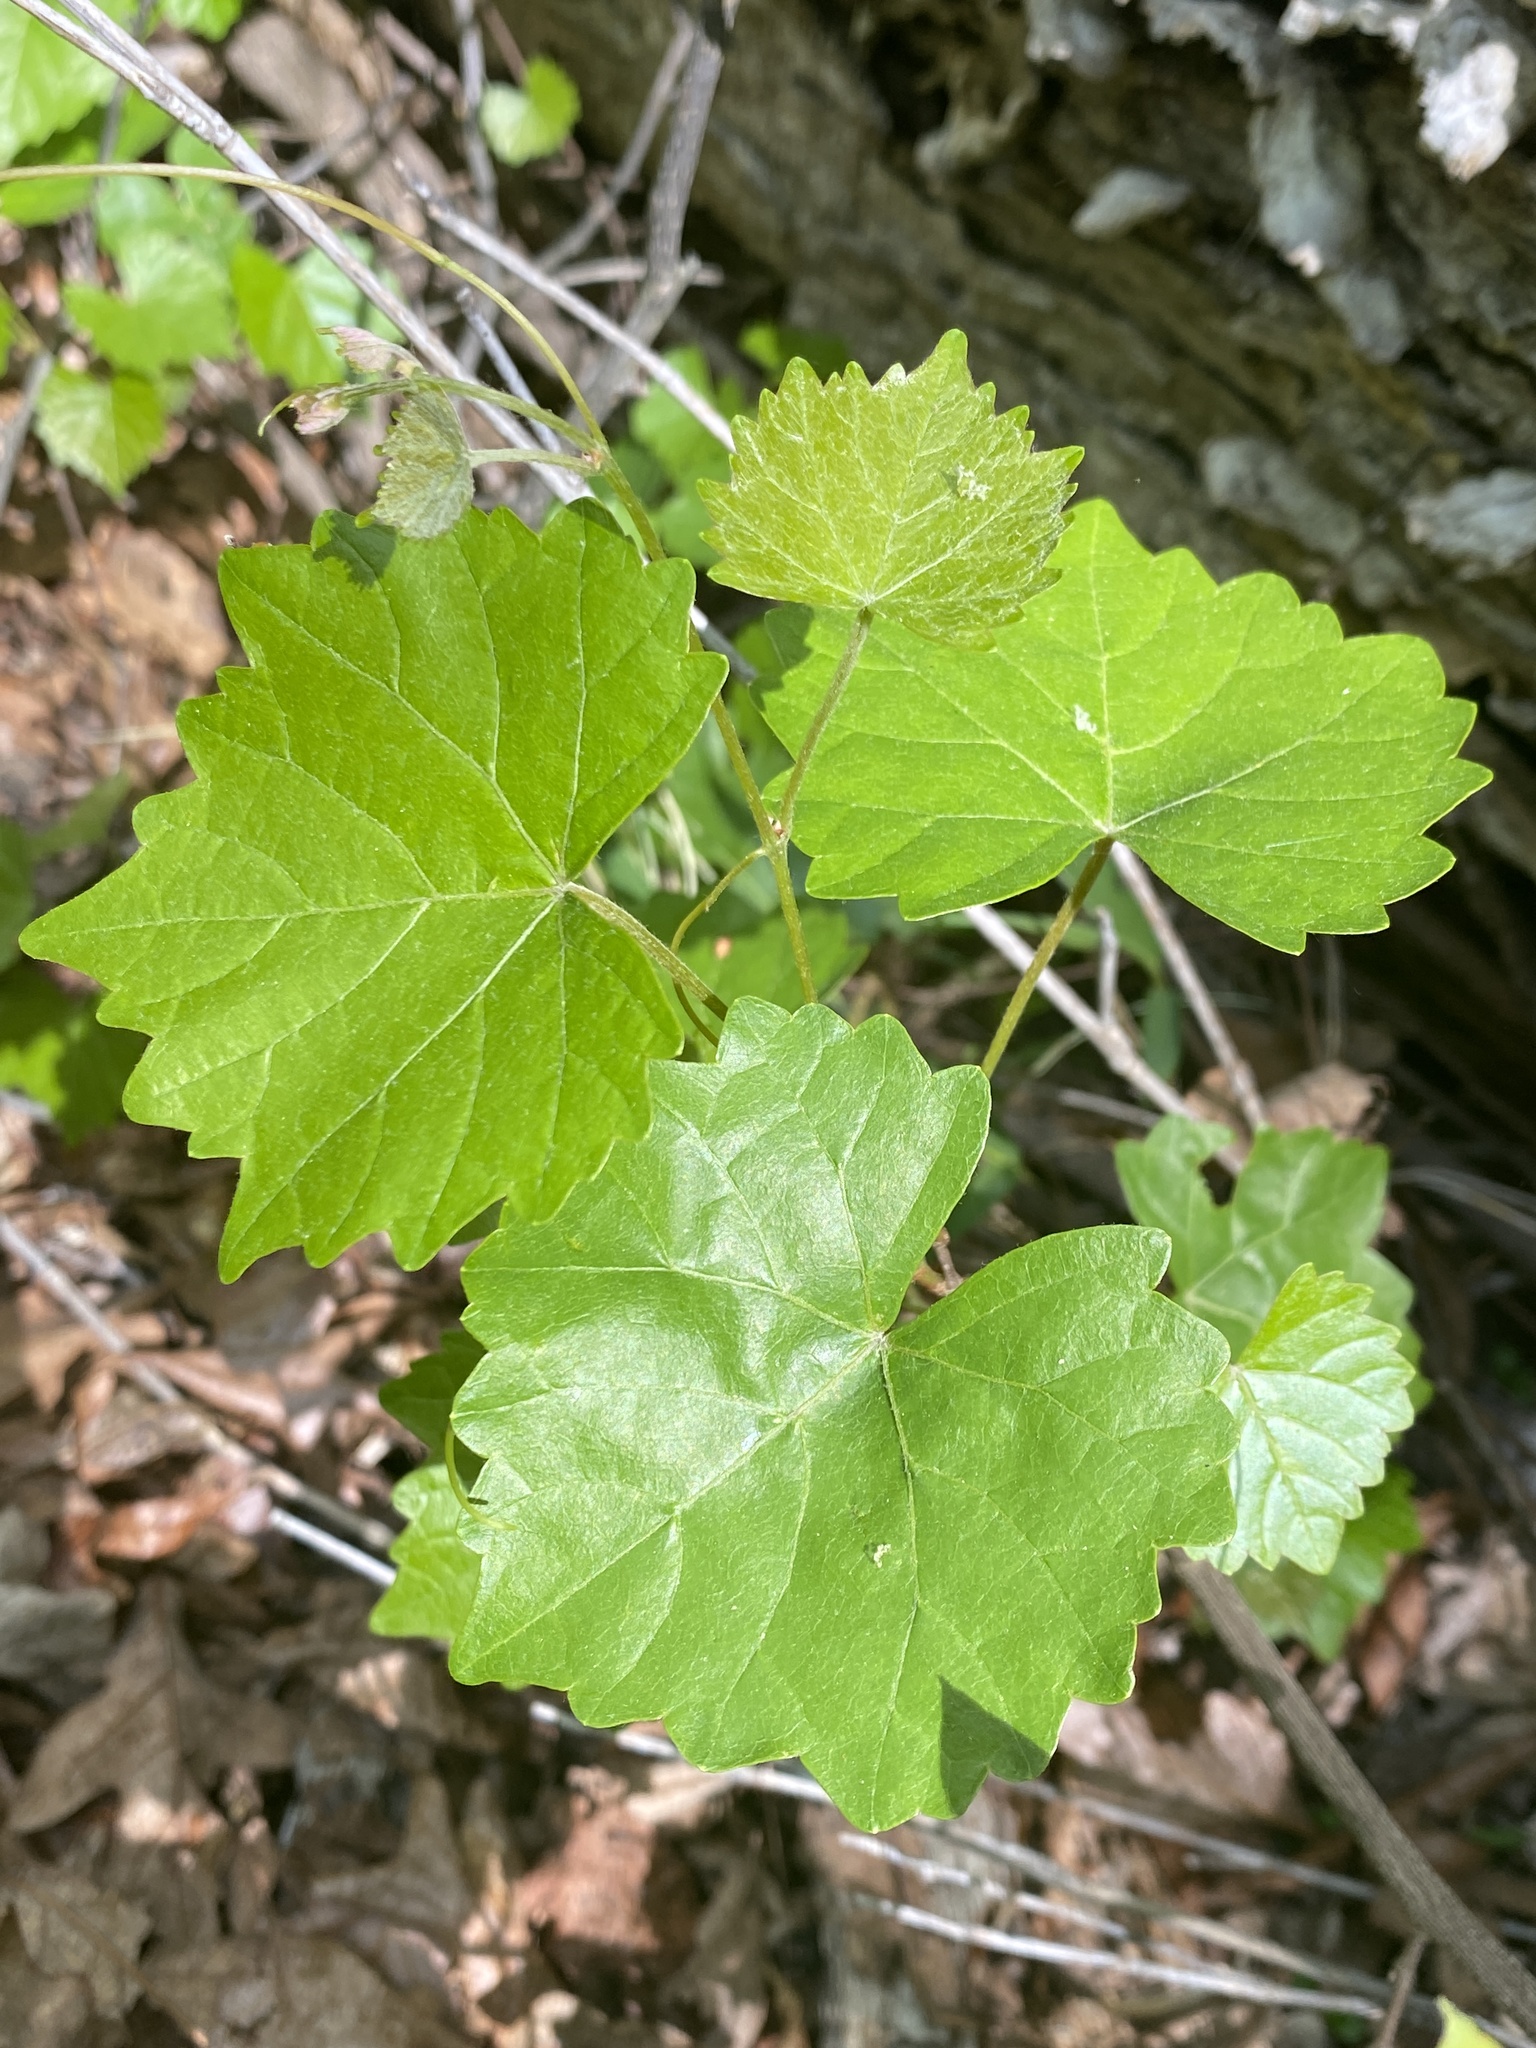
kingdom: Plantae
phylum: Tracheophyta
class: Magnoliopsida
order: Vitales
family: Vitaceae
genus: Vitis
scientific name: Vitis rotundifolia
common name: Muscadine grape
